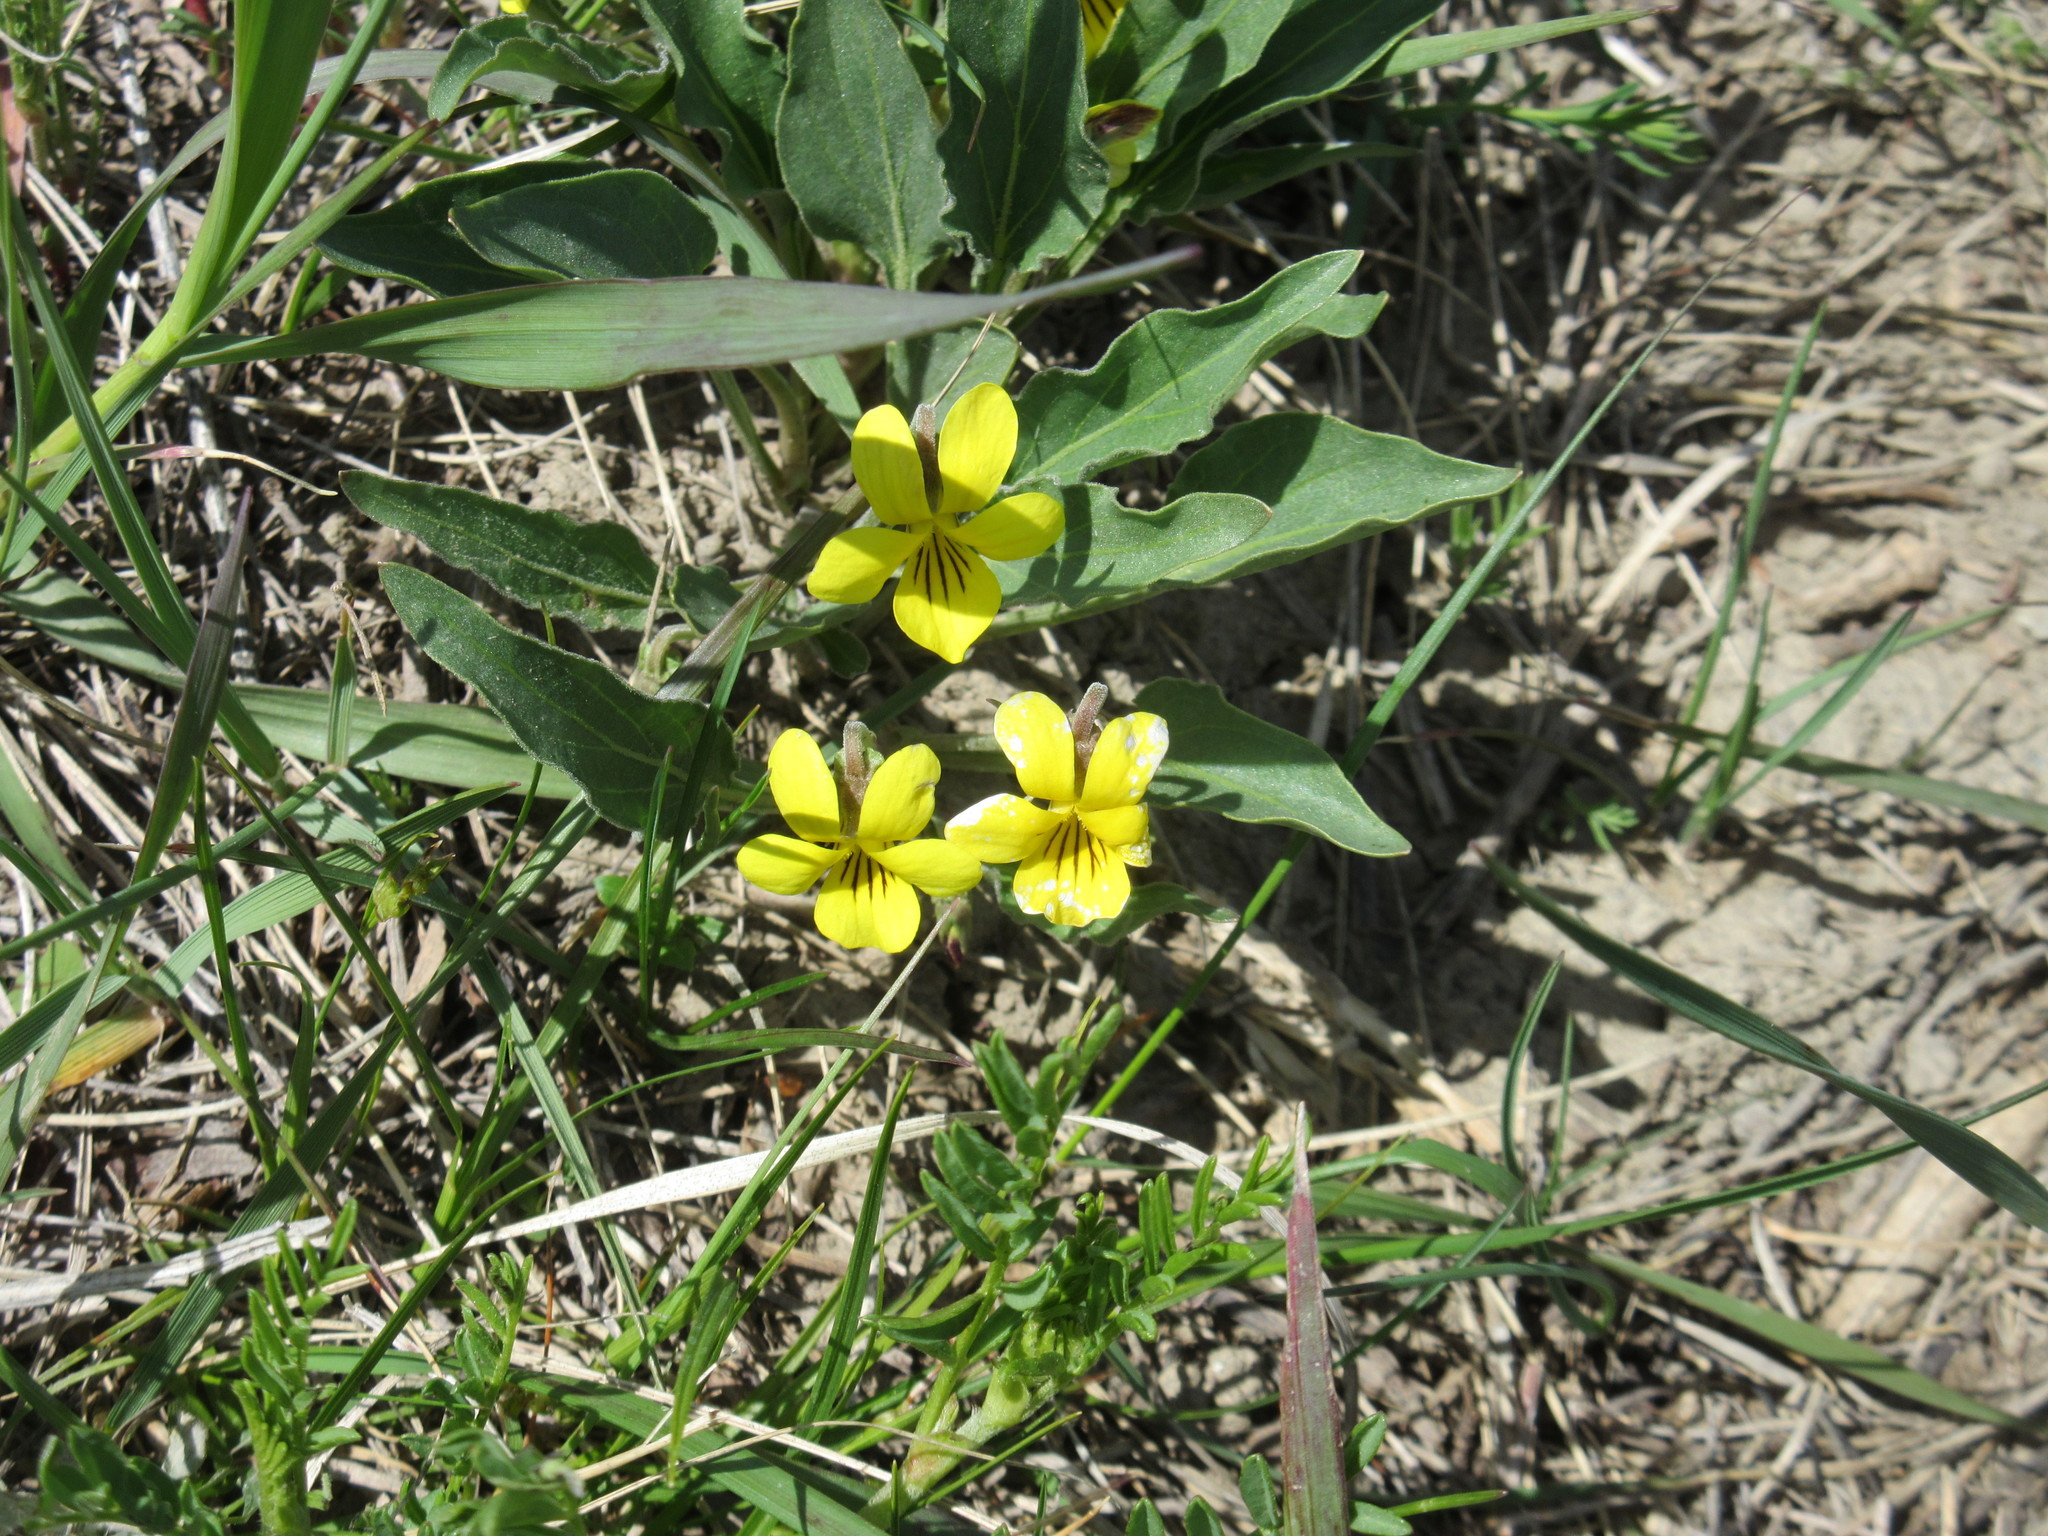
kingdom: Plantae
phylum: Tracheophyta
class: Magnoliopsida
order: Malpighiales
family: Violaceae
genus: Viola
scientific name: Viola nuttallii
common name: Yellow prairie violet
